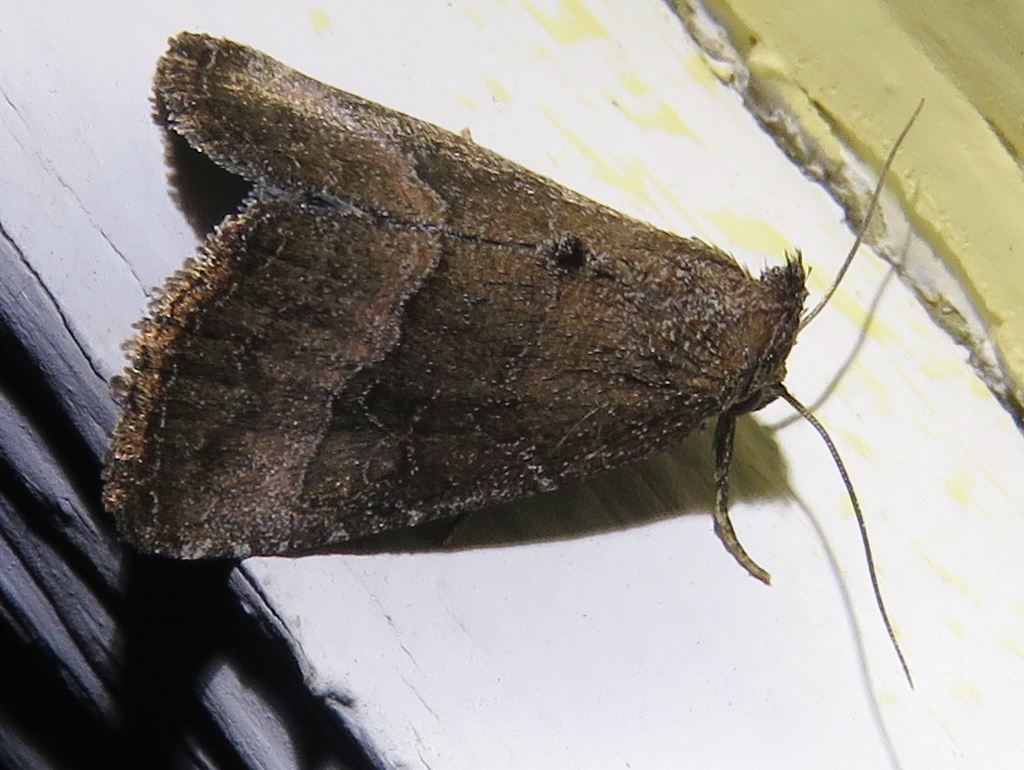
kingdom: Animalia
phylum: Arthropoda
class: Insecta
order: Lepidoptera
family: Noctuidae
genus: Ogdoconta
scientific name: Ogdoconta cinereola
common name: Common pinkband
